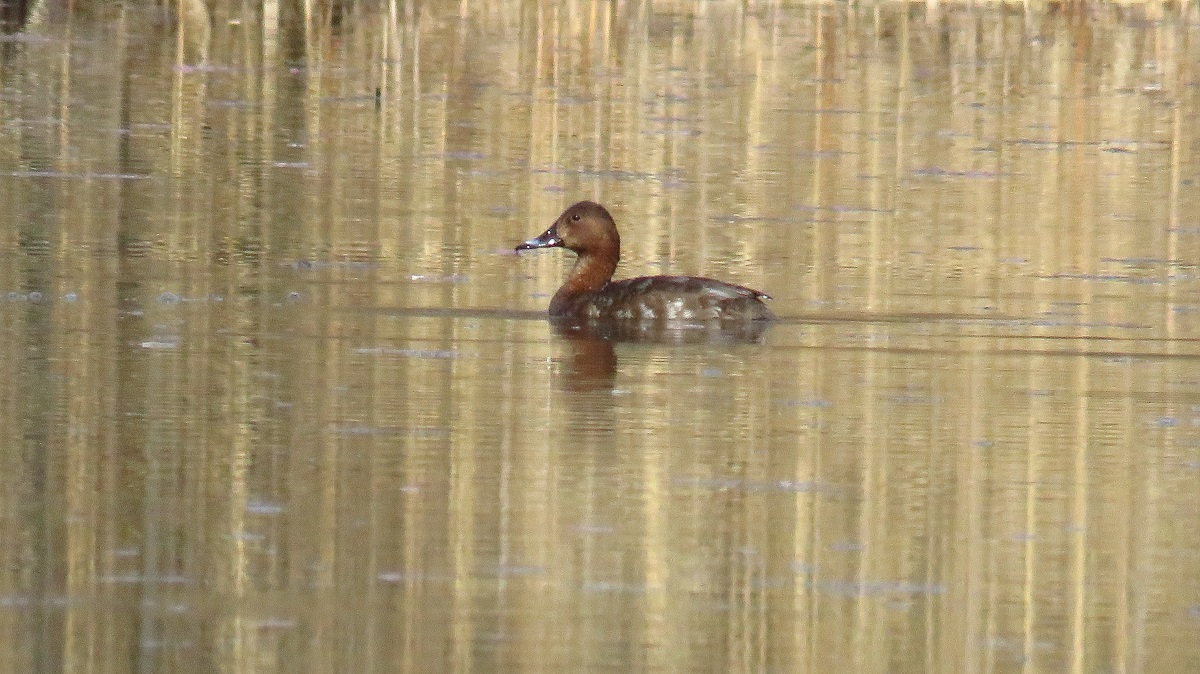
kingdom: Animalia
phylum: Chordata
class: Aves
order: Anseriformes
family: Anatidae
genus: Aythya
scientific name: Aythya ferina
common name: Common pochard
